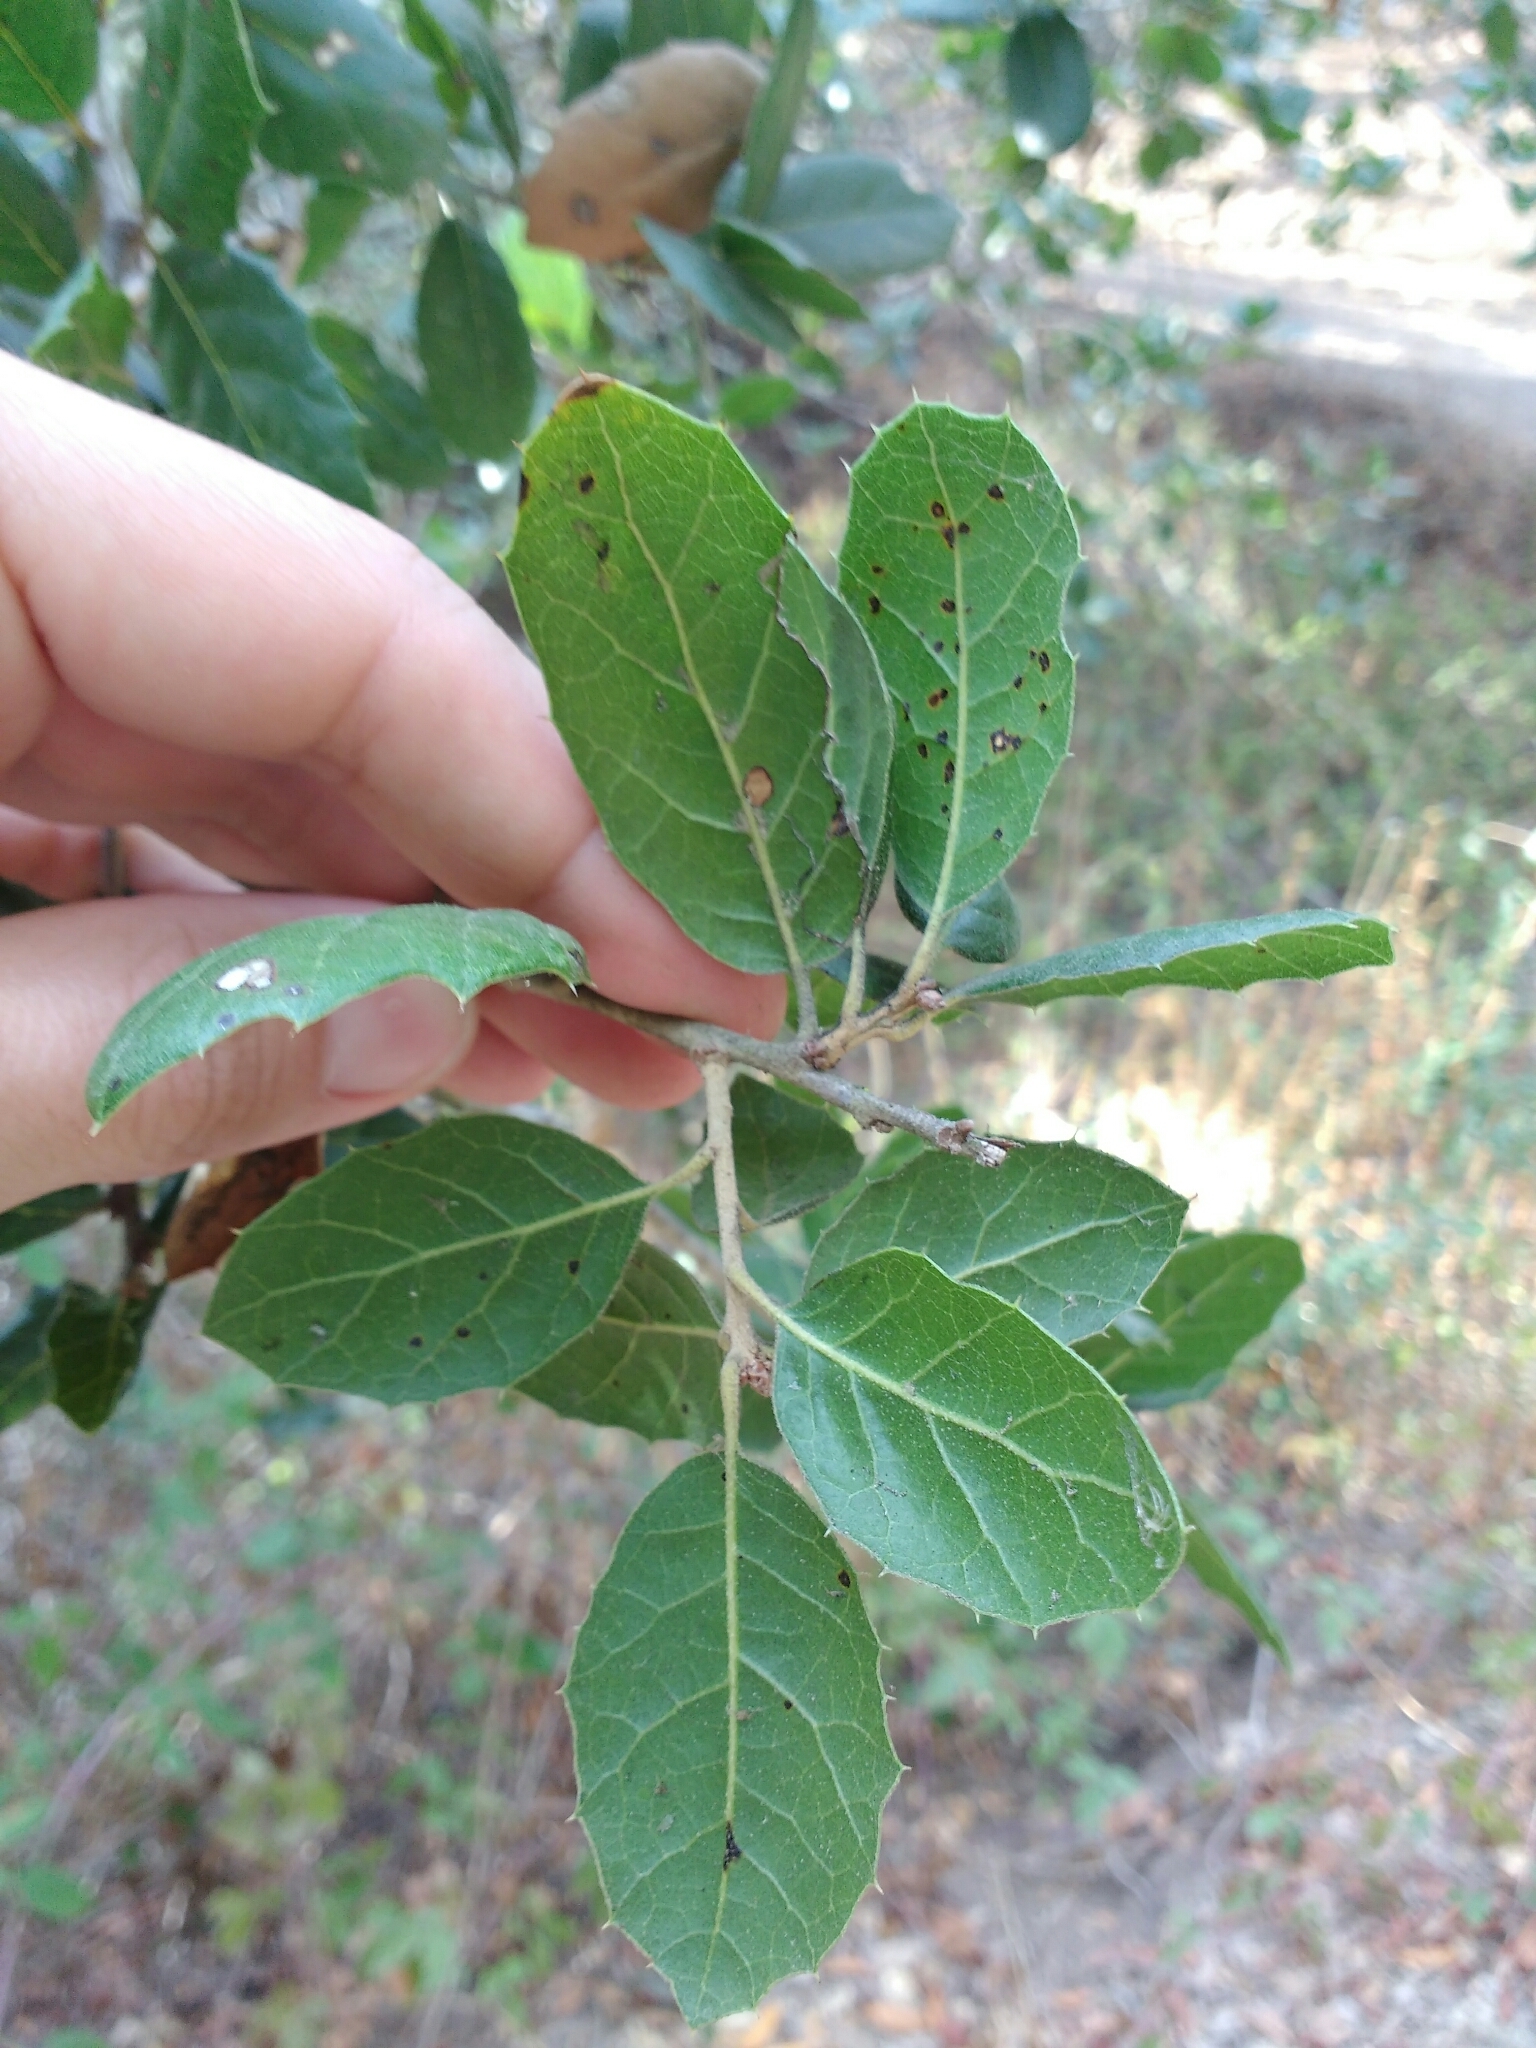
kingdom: Plantae
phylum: Tracheophyta
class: Magnoliopsida
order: Fagales
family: Fagaceae
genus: Quercus
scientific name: Quercus agrifolia
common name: California live oak
